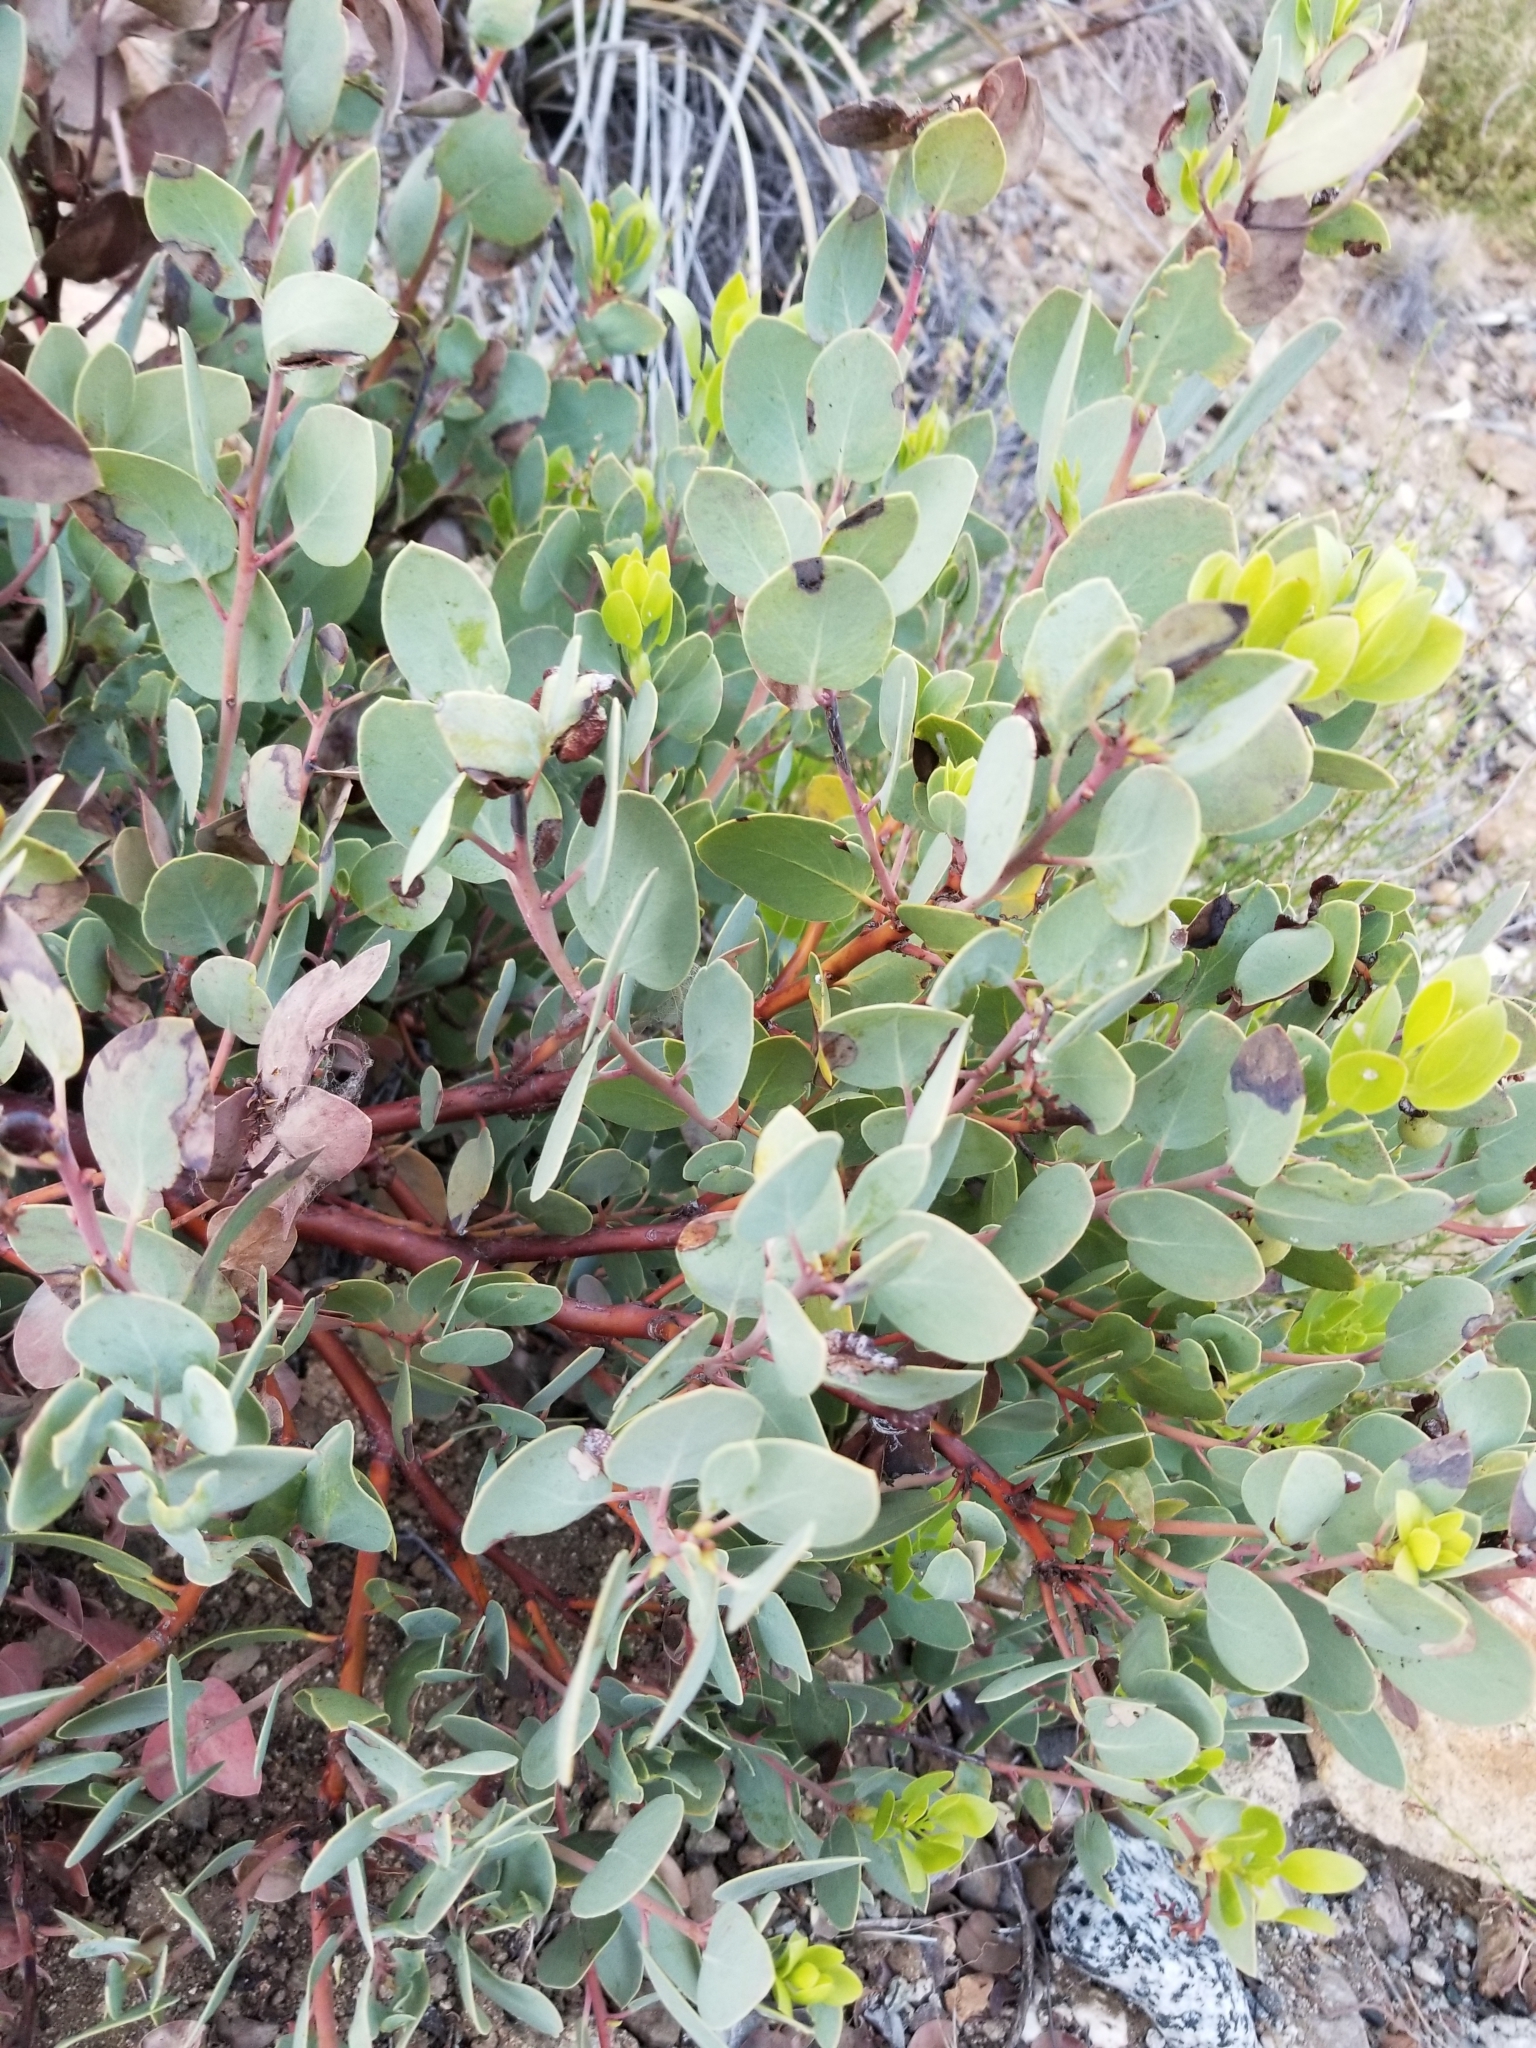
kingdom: Plantae
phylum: Tracheophyta
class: Magnoliopsida
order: Ericales
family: Ericaceae
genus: Arctostaphylos
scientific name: Arctostaphylos glauca
